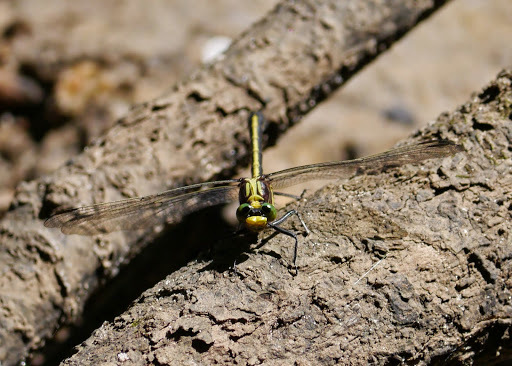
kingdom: Animalia
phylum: Arthropoda
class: Insecta
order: Odonata
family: Gomphidae
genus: Dromogomphus
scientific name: Dromogomphus spinosus
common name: Black-shouldered spinyleg
